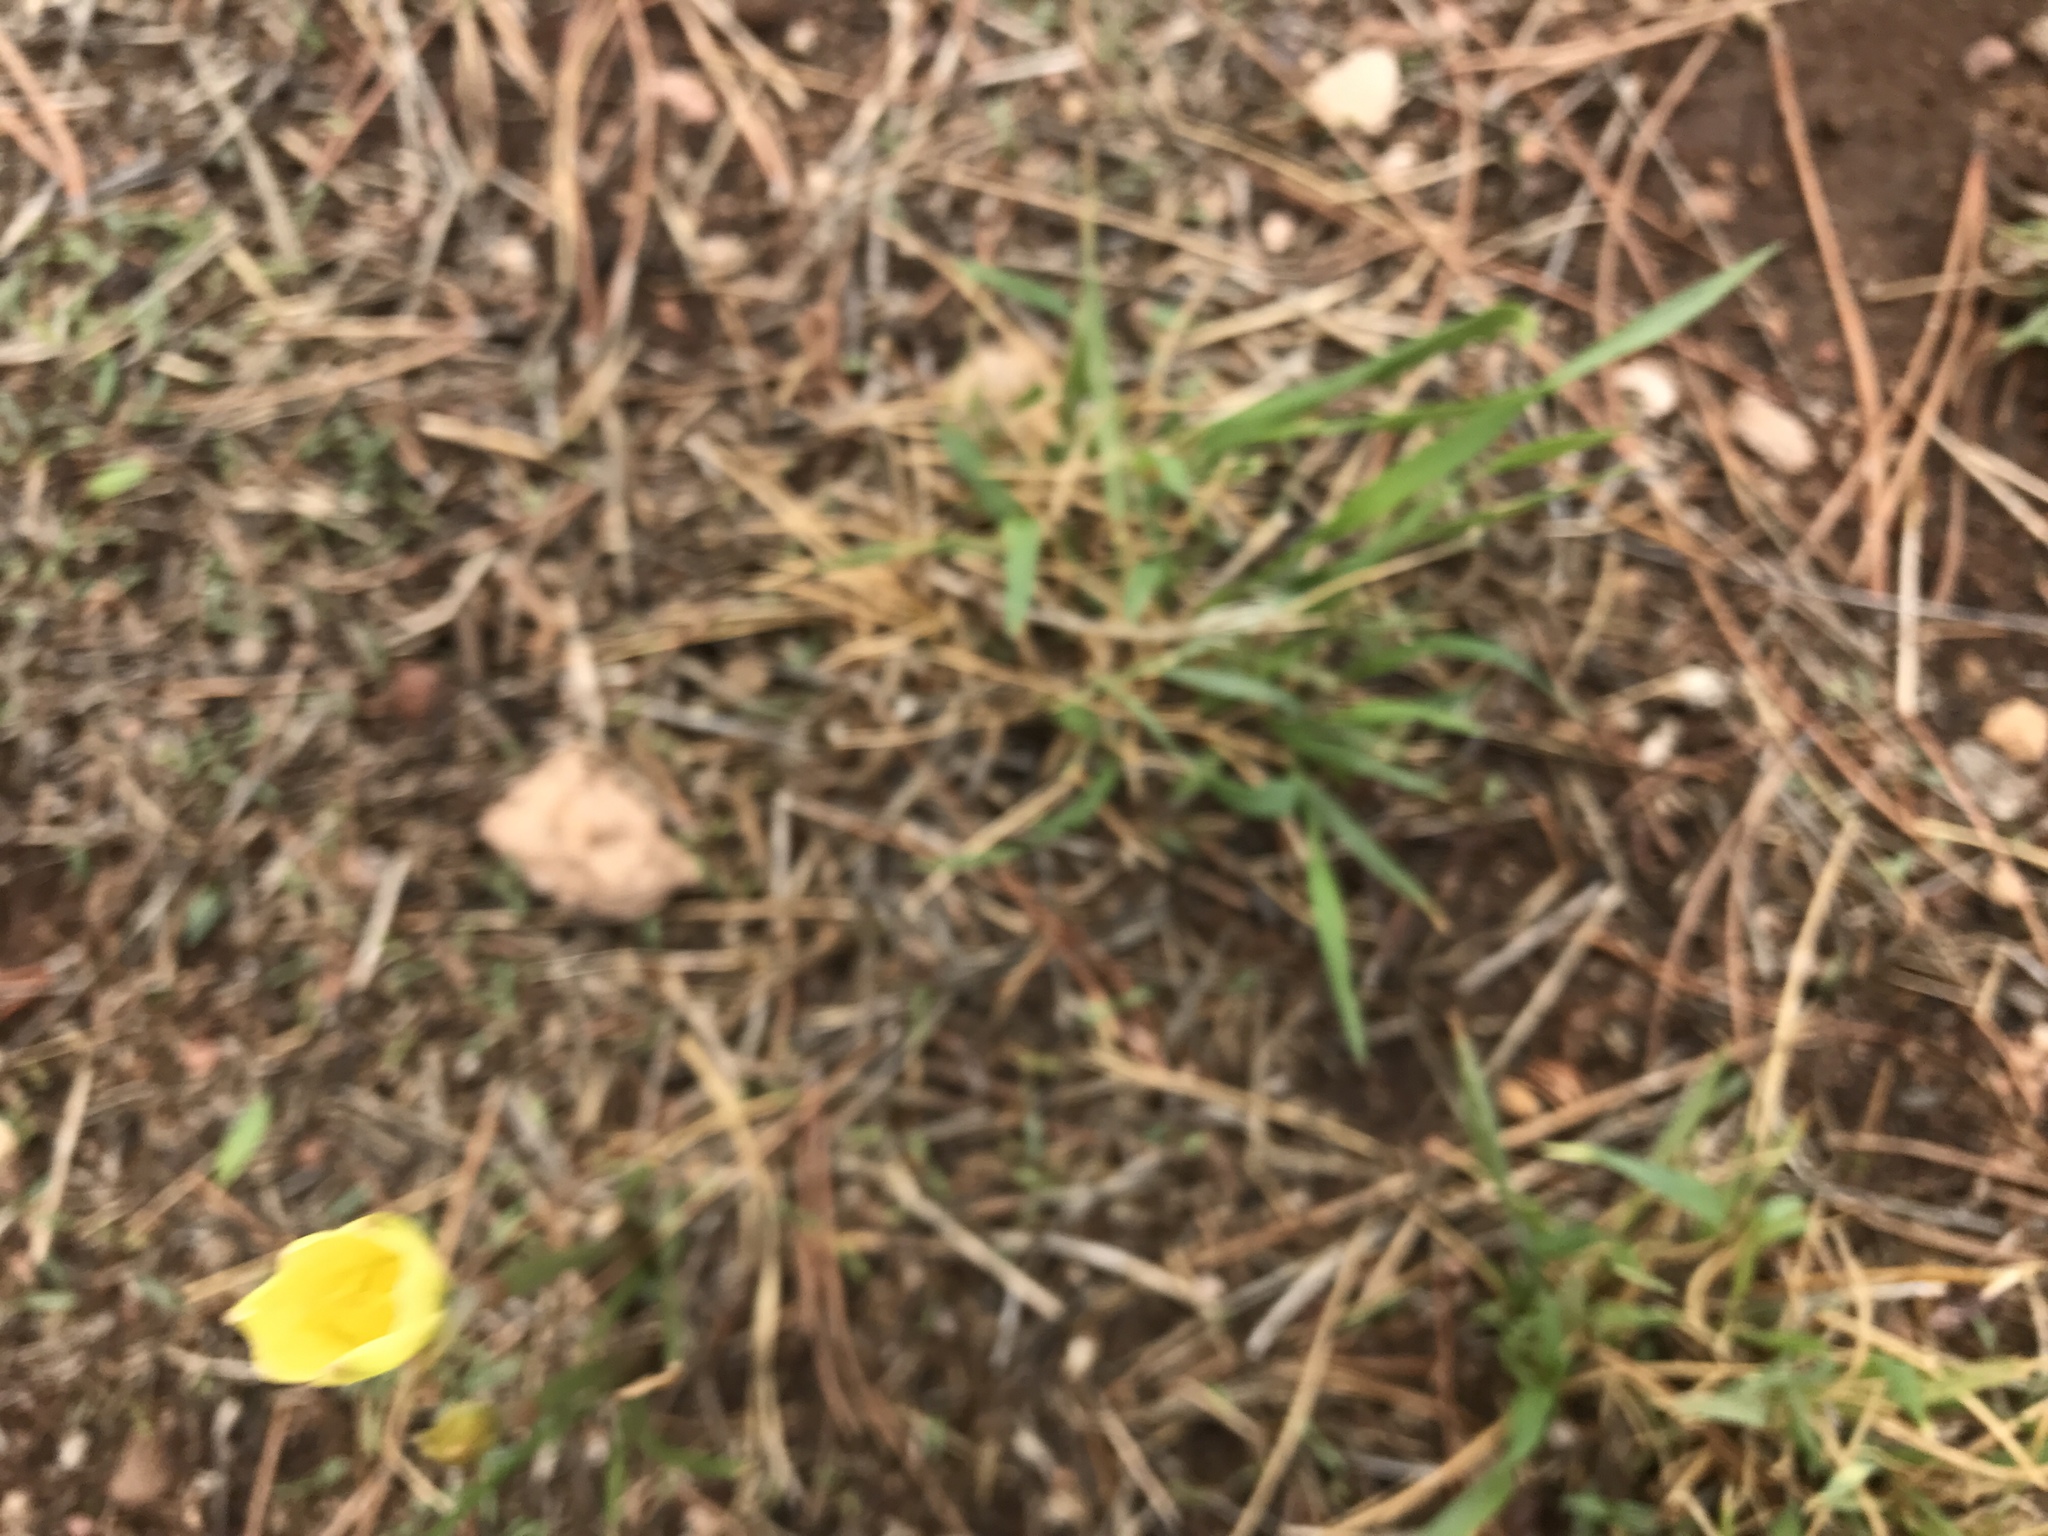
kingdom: Plantae
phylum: Tracheophyta
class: Liliopsida
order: Asparagales
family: Amaryllidaceae
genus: Zephyranthes
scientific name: Zephyranthes longifolia
